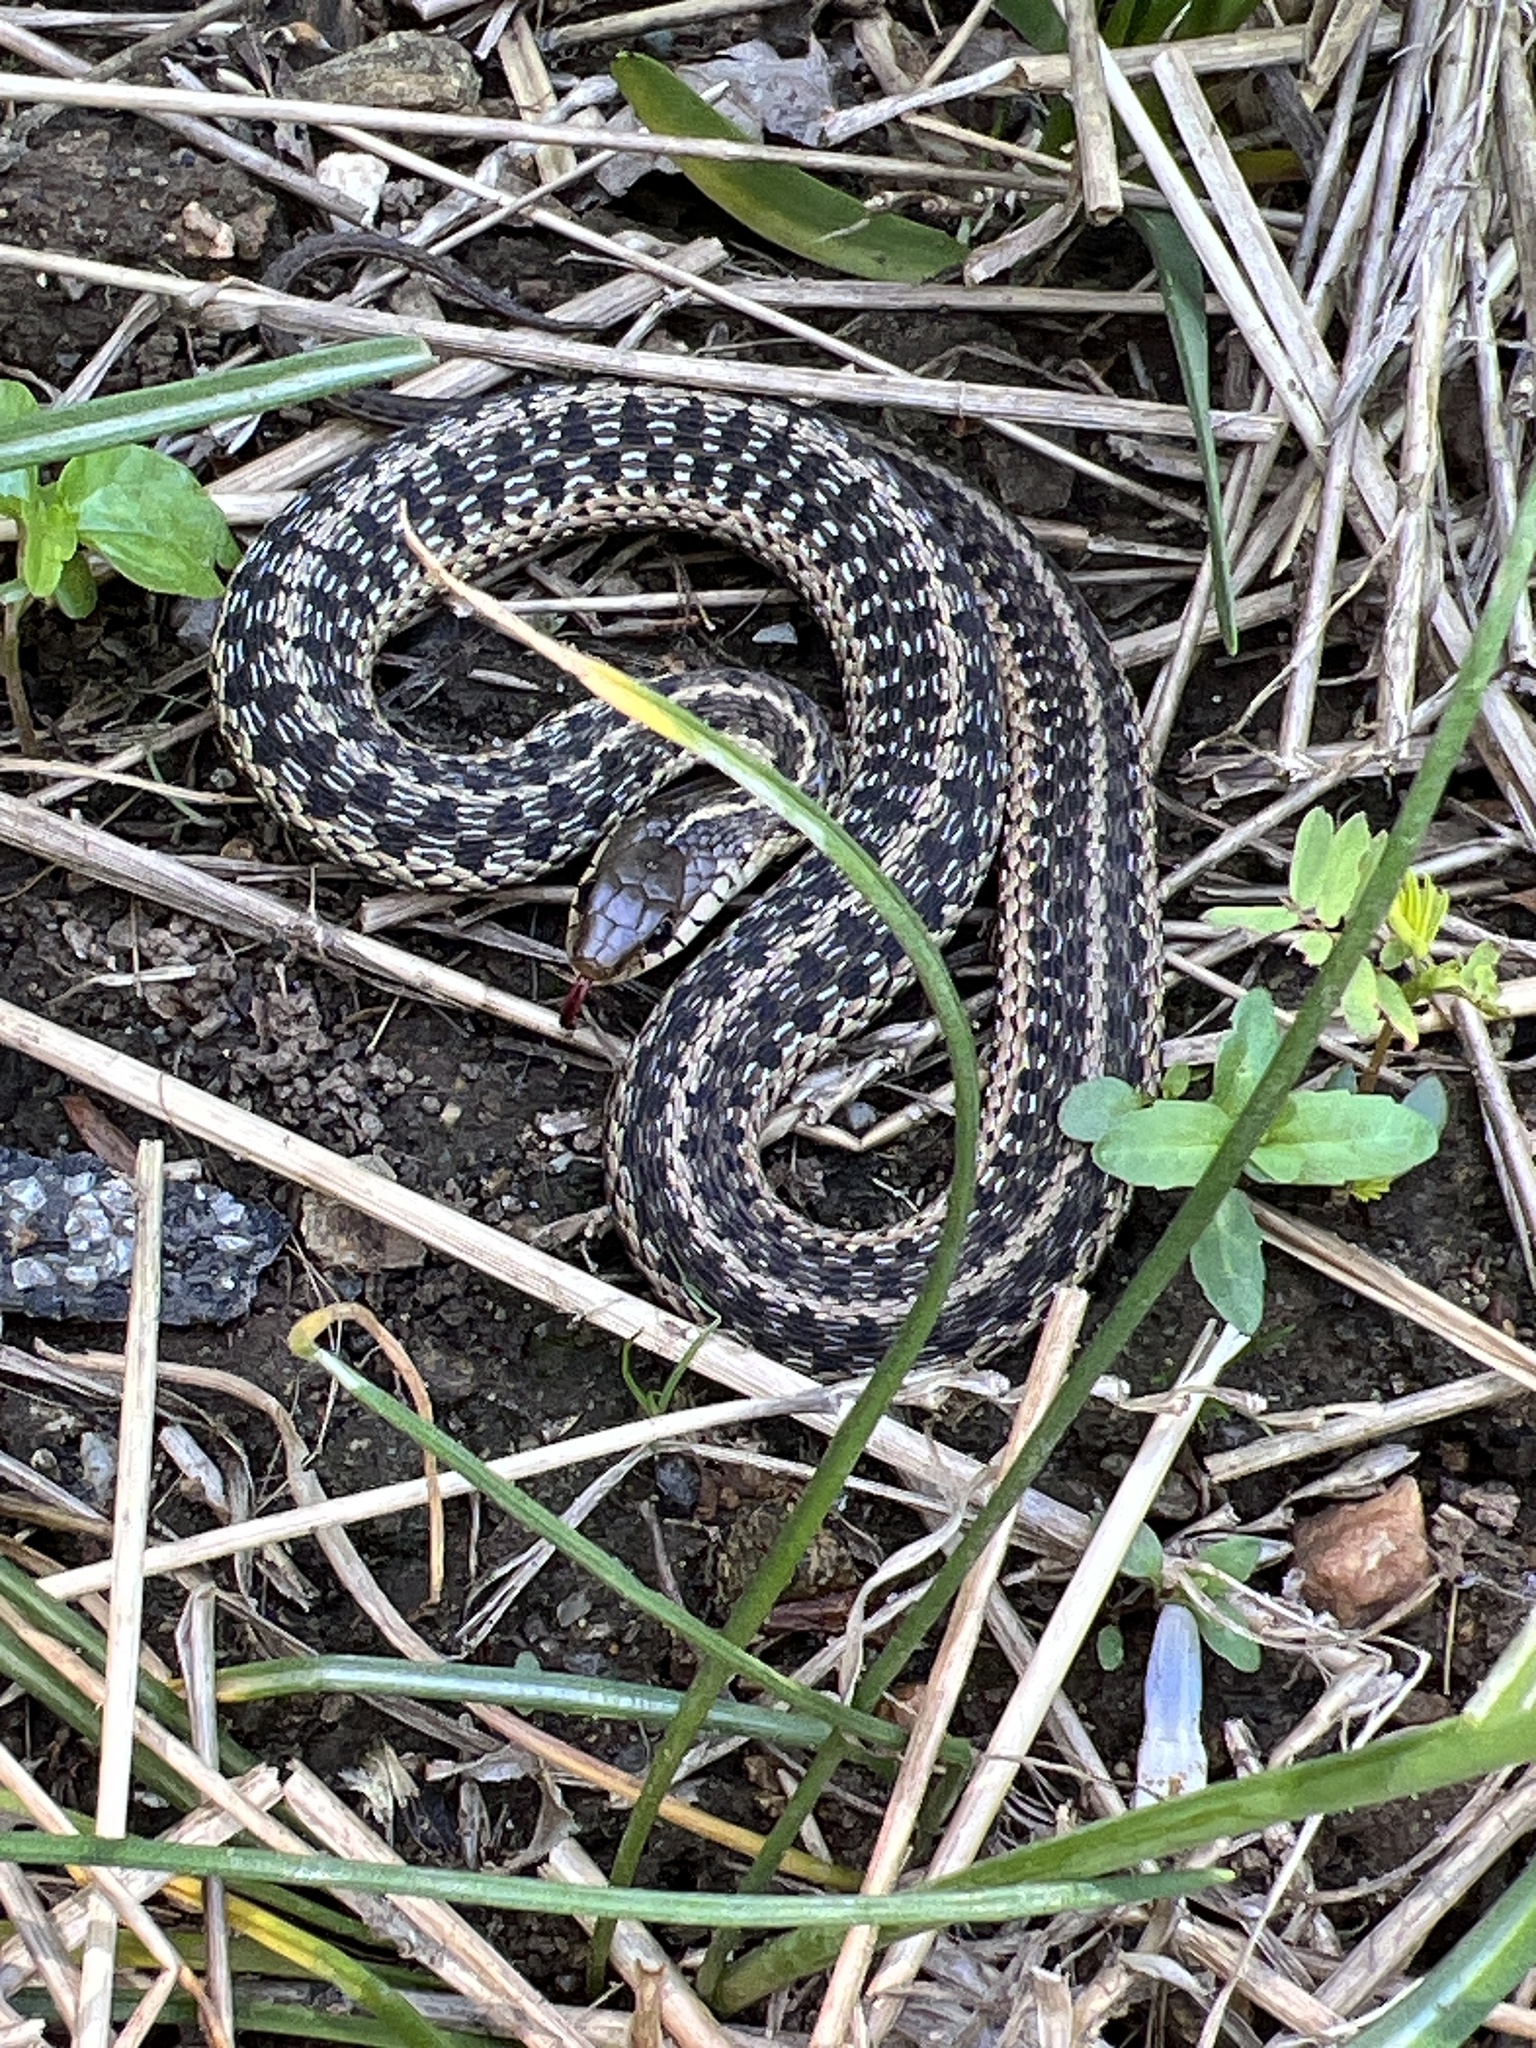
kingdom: Animalia
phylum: Chordata
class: Squamata
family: Colubridae
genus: Thamnophis
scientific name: Thamnophis sirtalis
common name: Common garter snake
